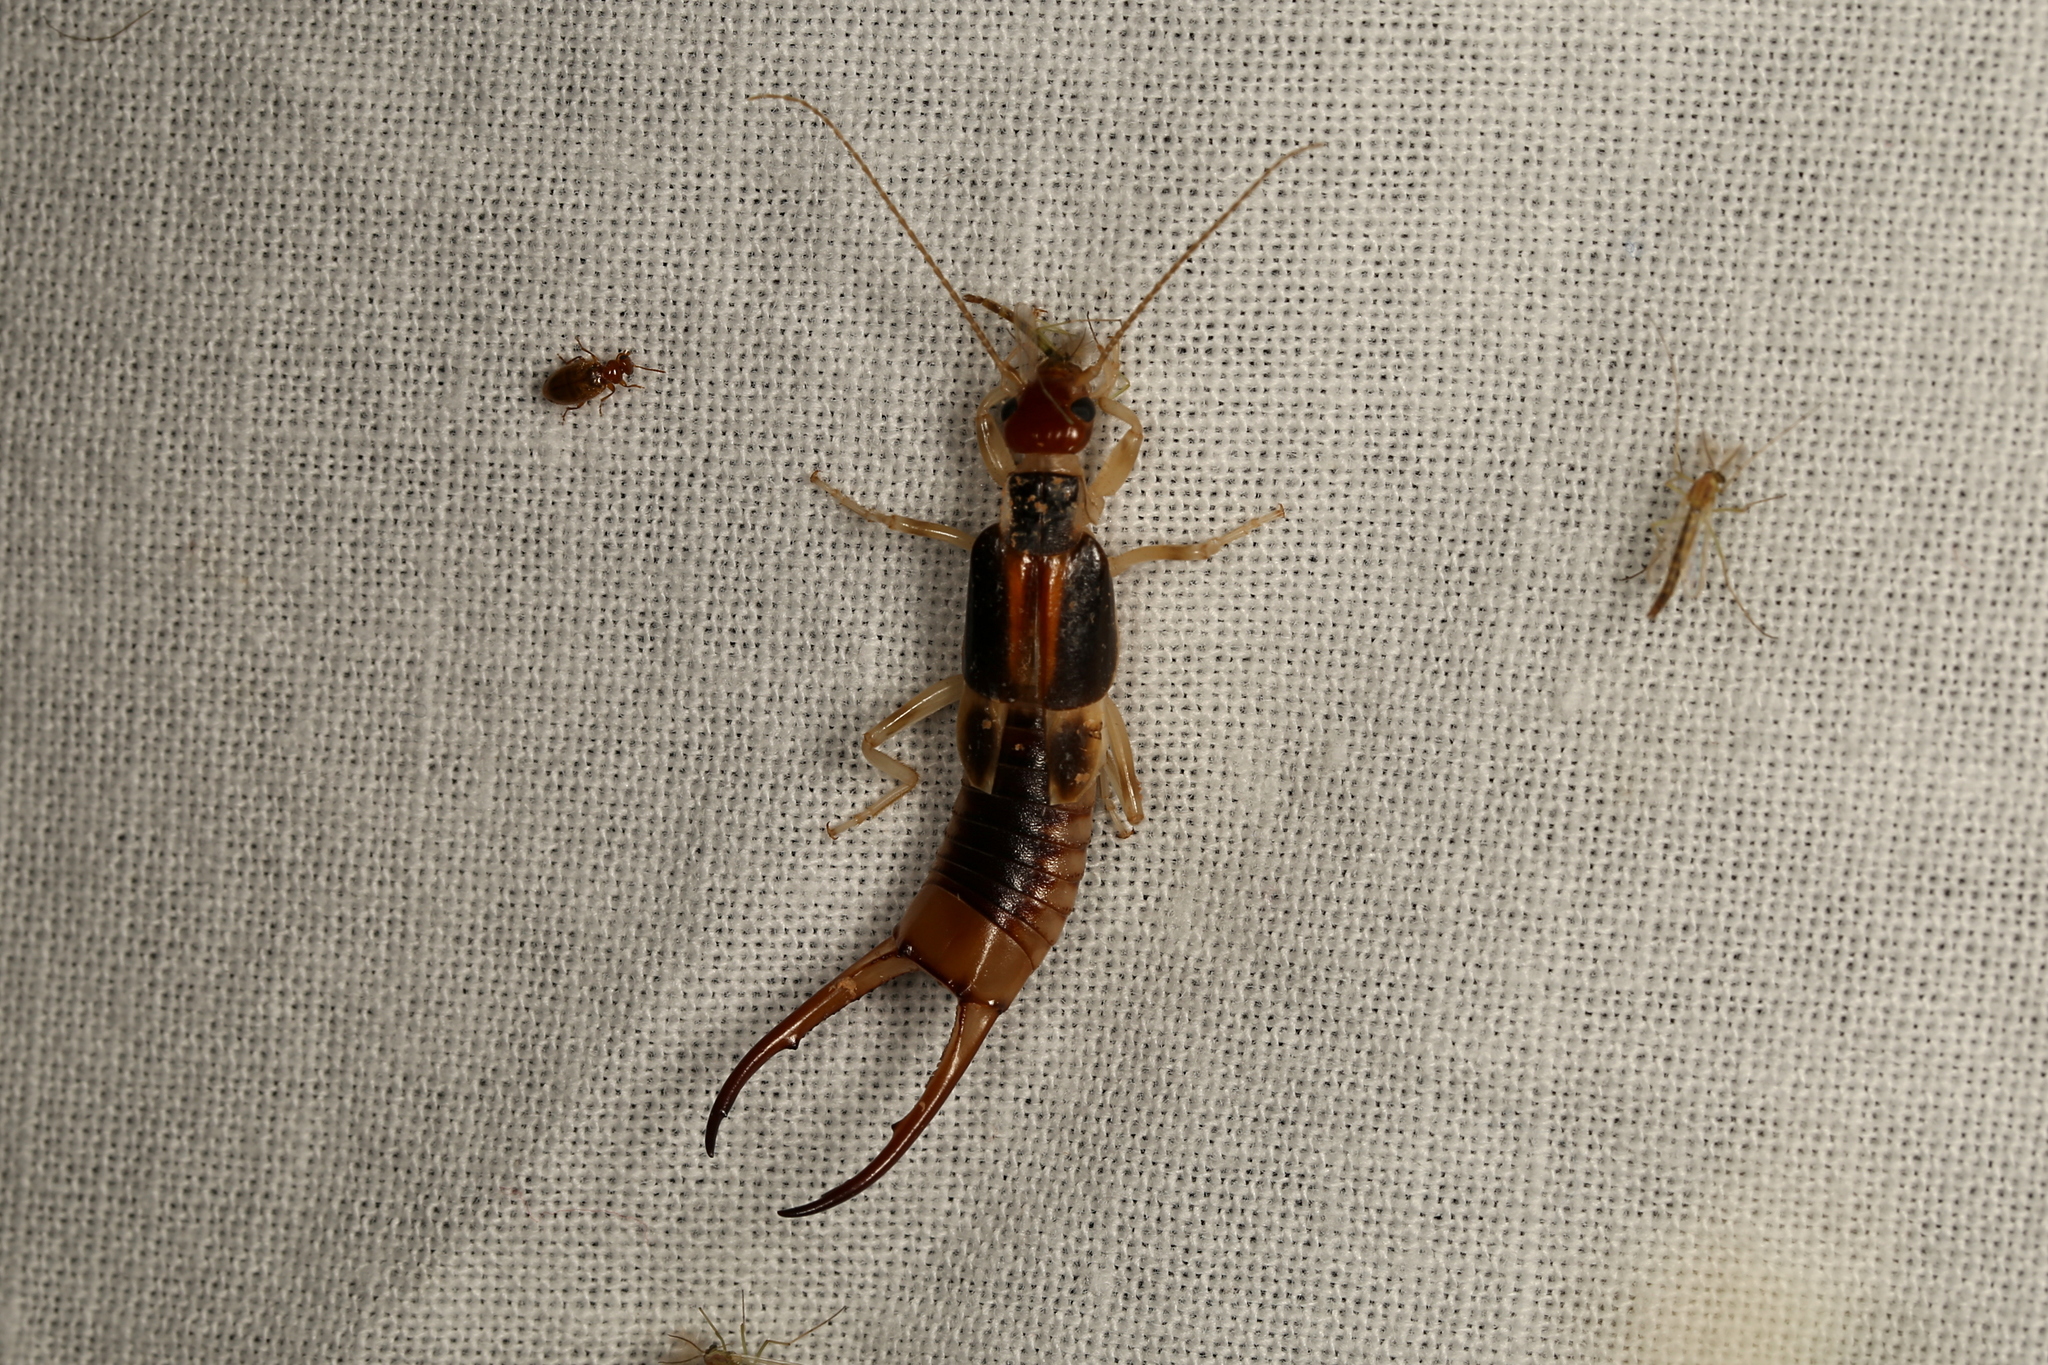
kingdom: Animalia
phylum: Arthropoda
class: Insecta
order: Dermaptera
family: Labiduridae
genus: Labidura
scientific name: Labidura riparia
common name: Striped earwig
